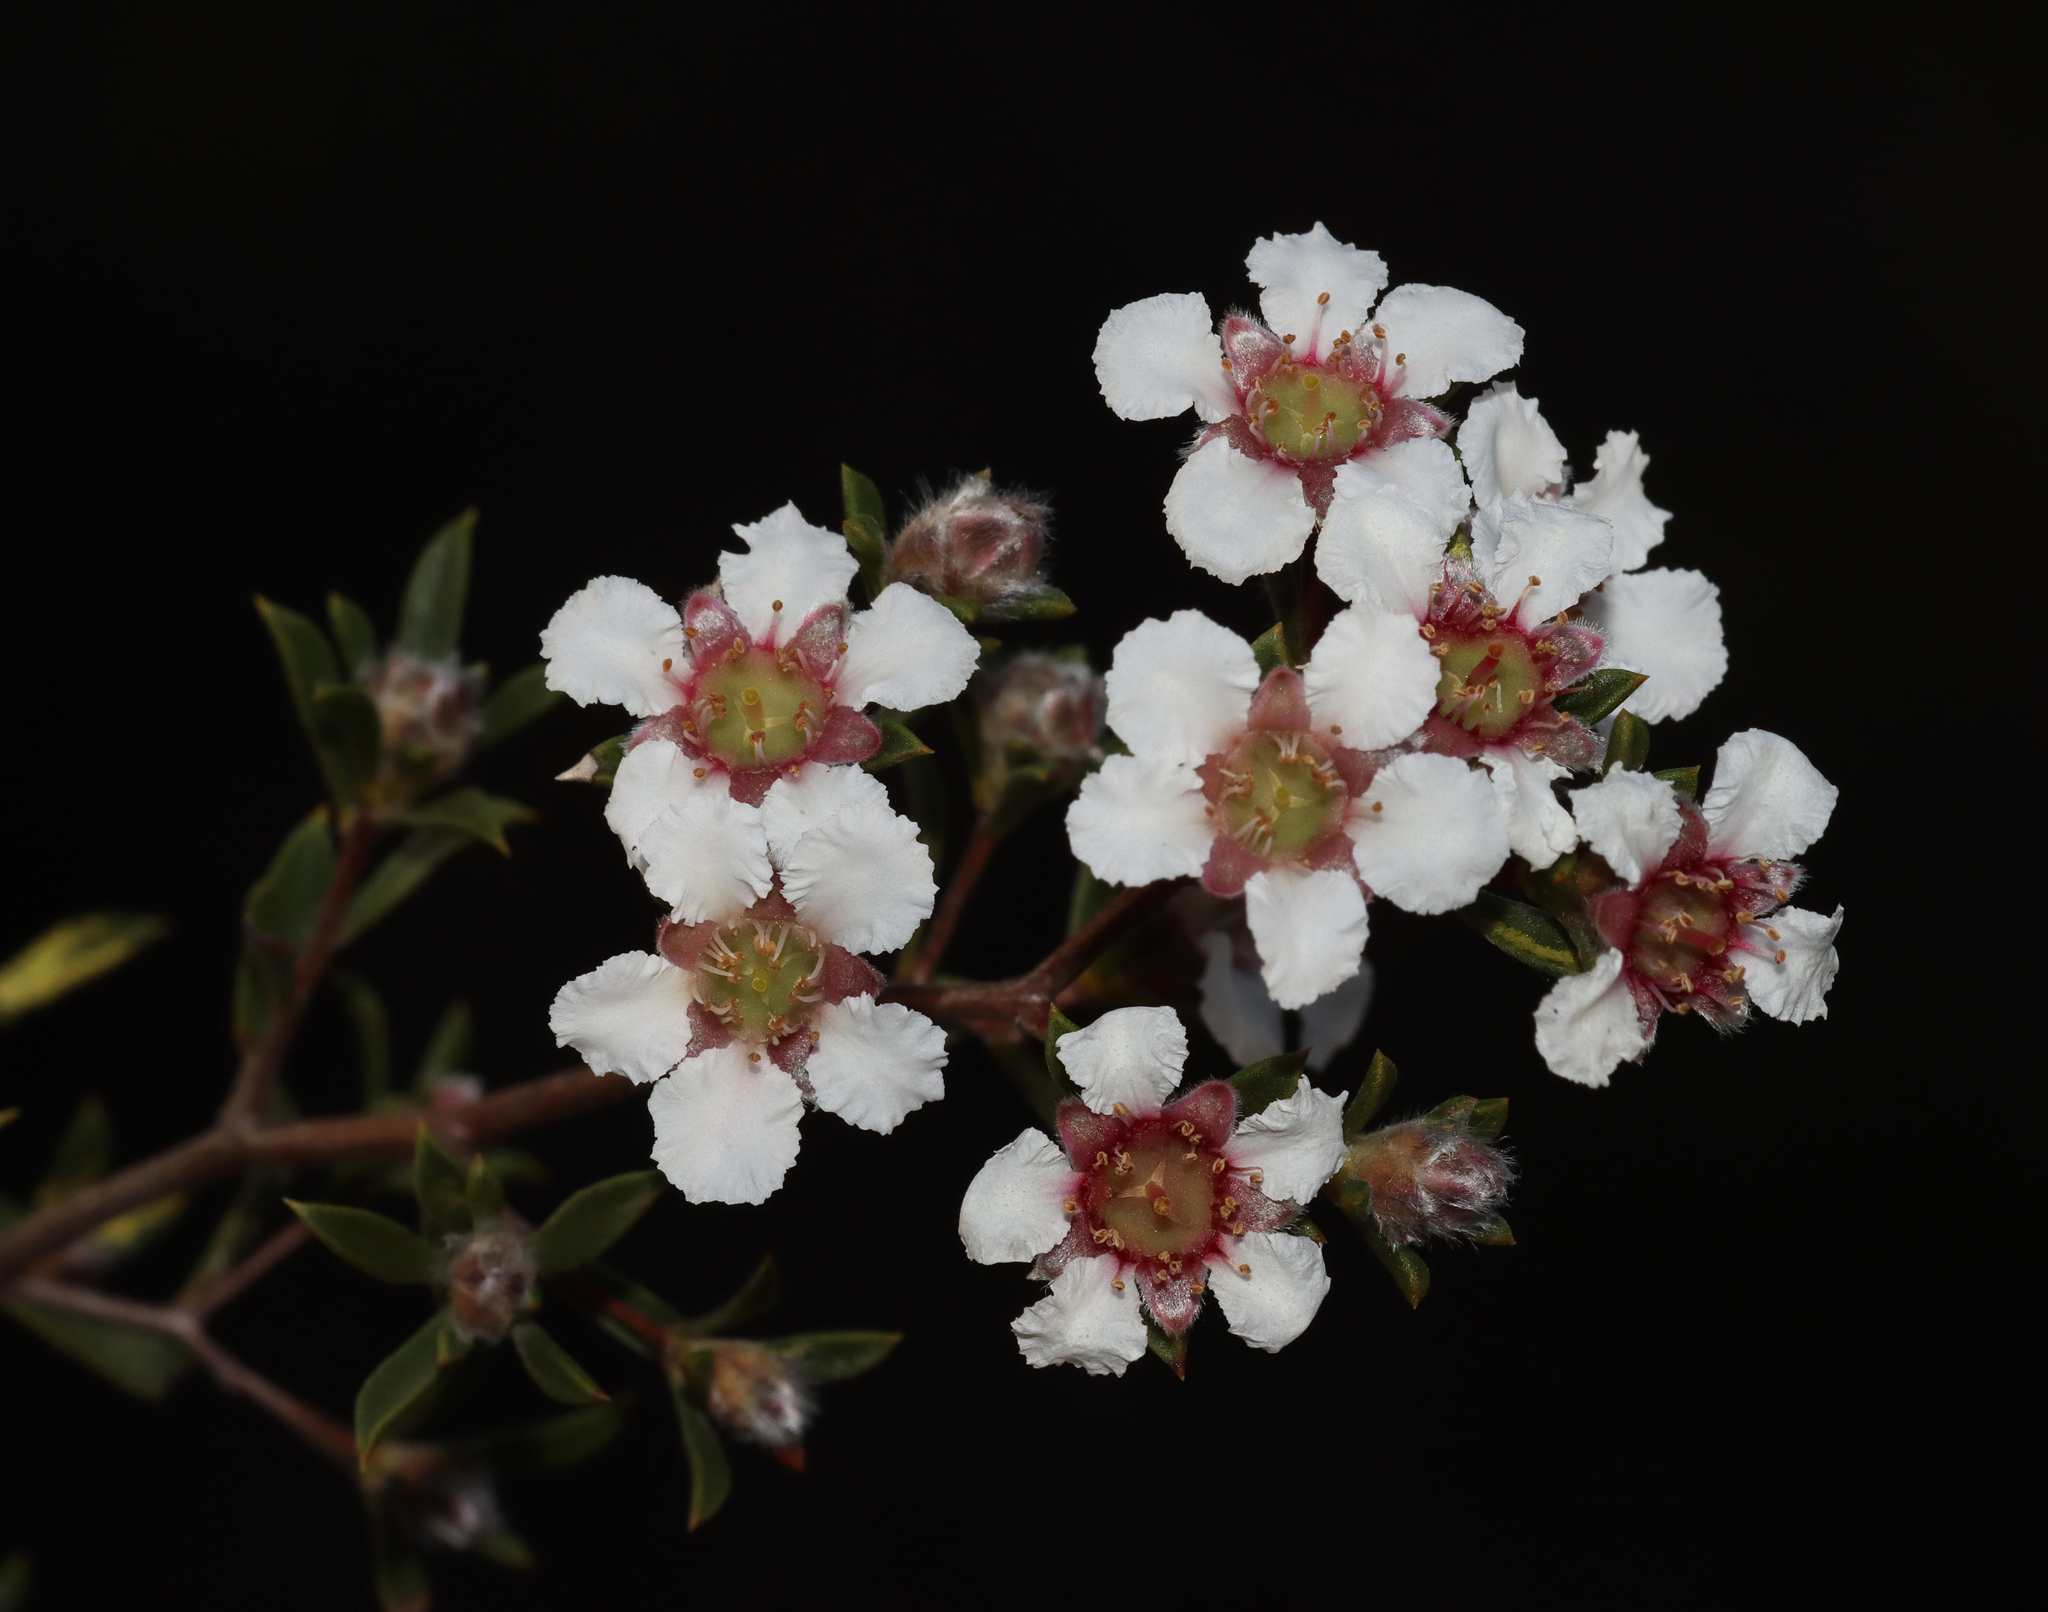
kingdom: Plantae
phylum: Tracheophyta
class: Magnoliopsida
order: Myrtales
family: Myrtaceae
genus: Leptospermum
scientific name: Leptospermum erubescens
